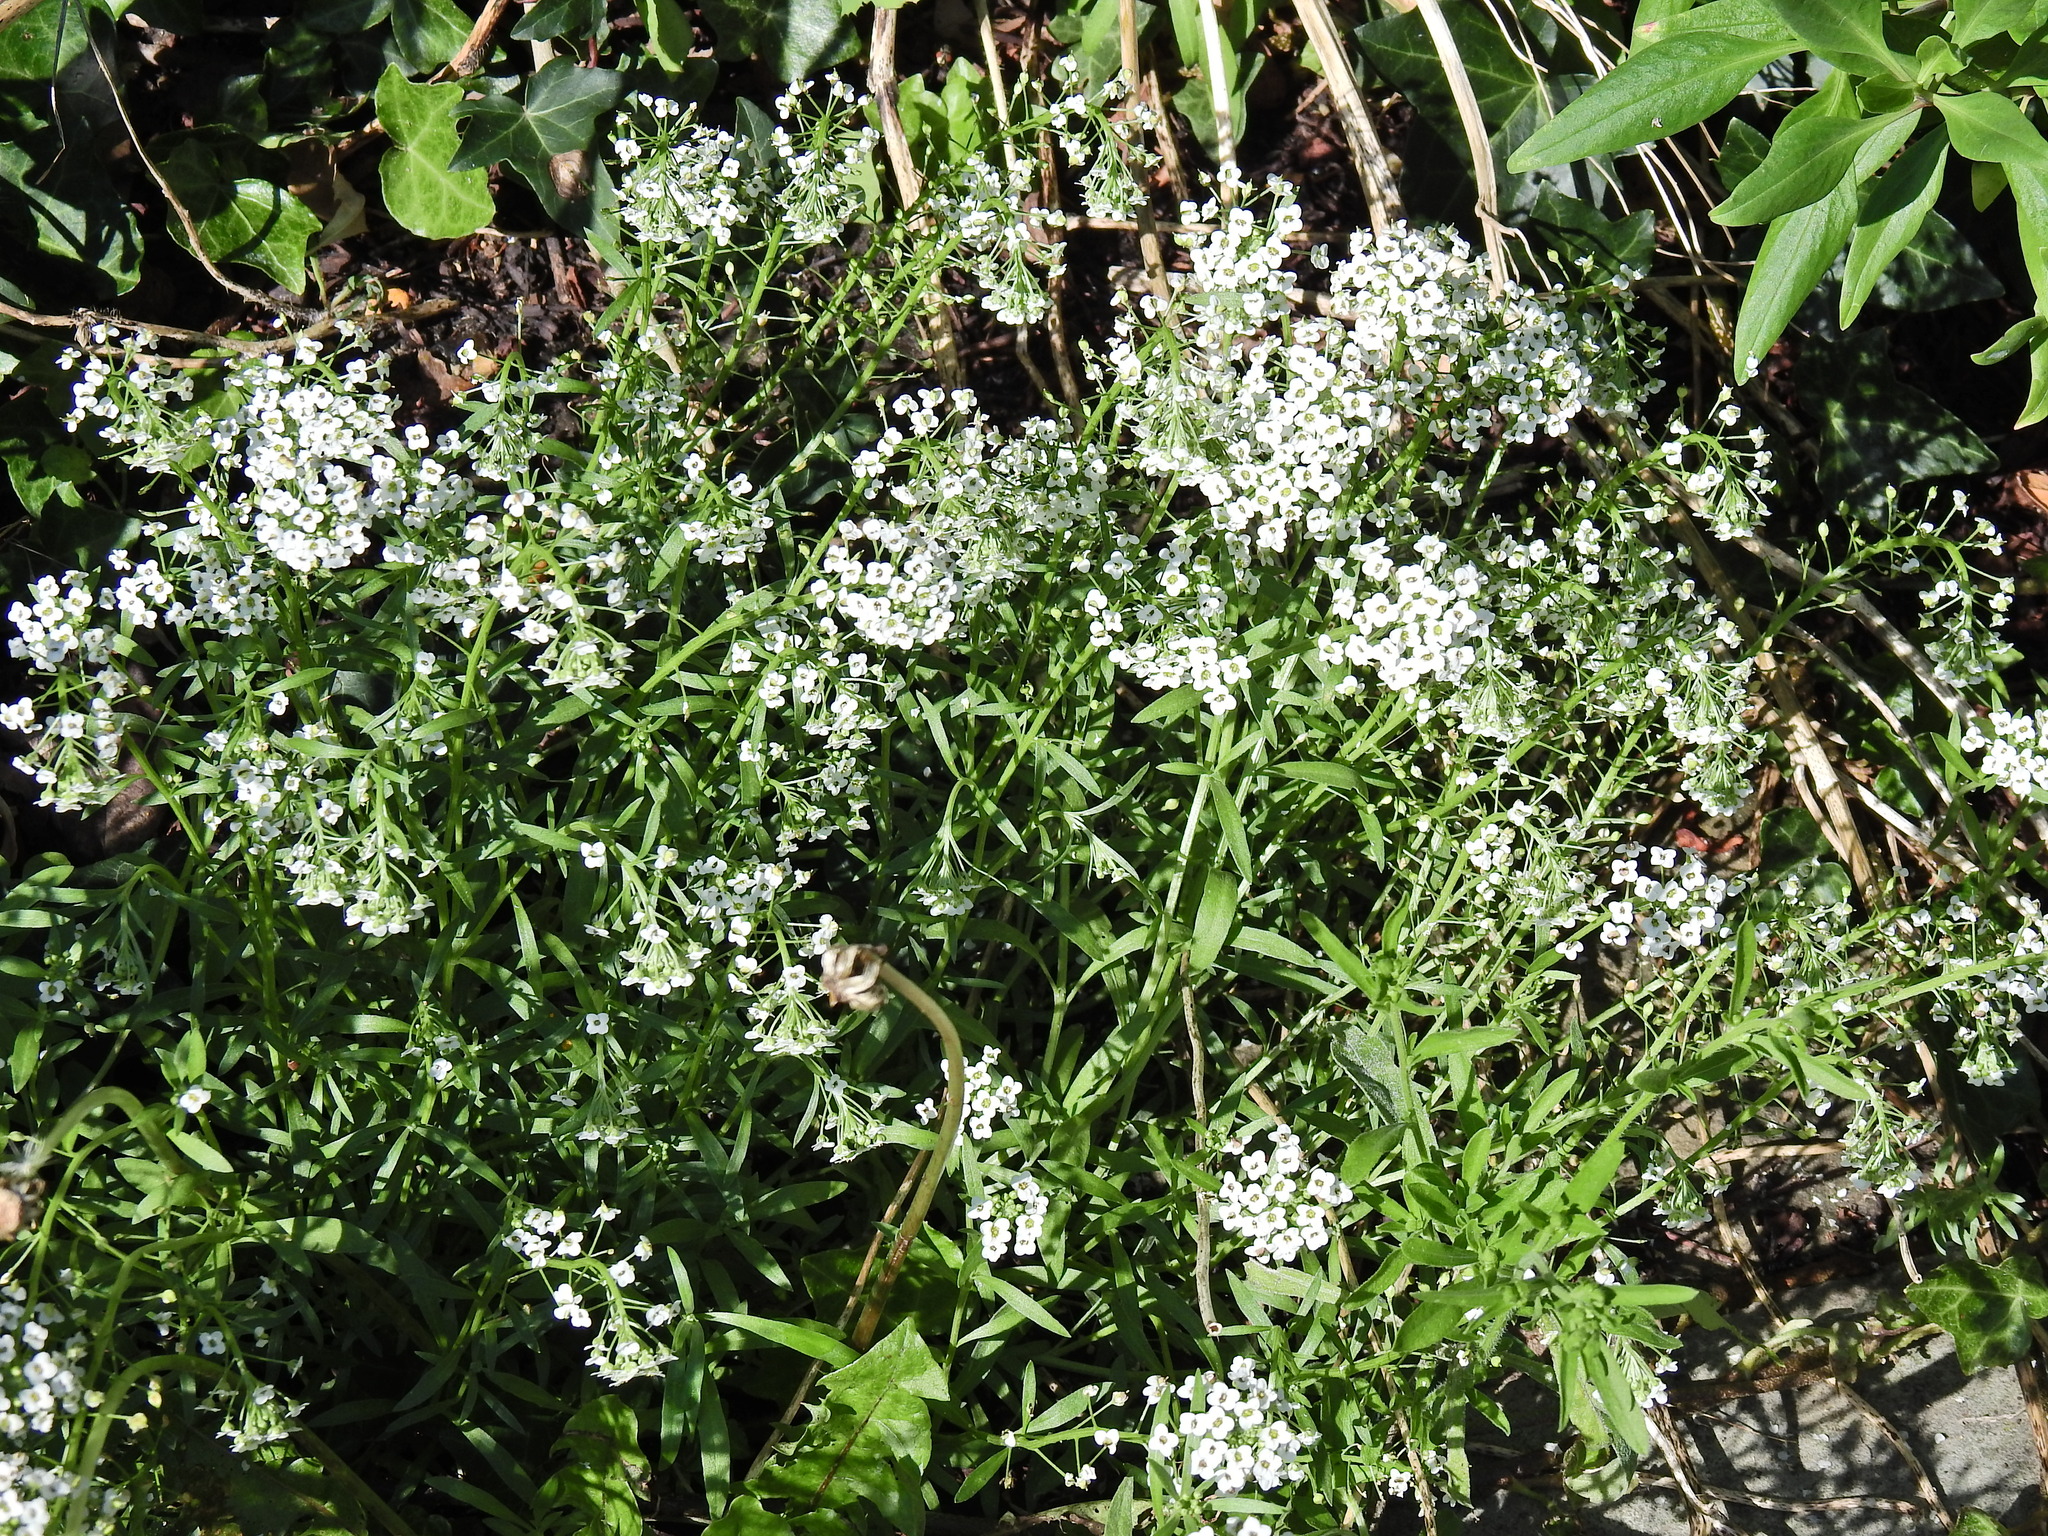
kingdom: Plantae
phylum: Tracheophyta
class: Magnoliopsida
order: Brassicales
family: Brassicaceae
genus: Lobularia
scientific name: Lobularia maritima
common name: Sweet alison
